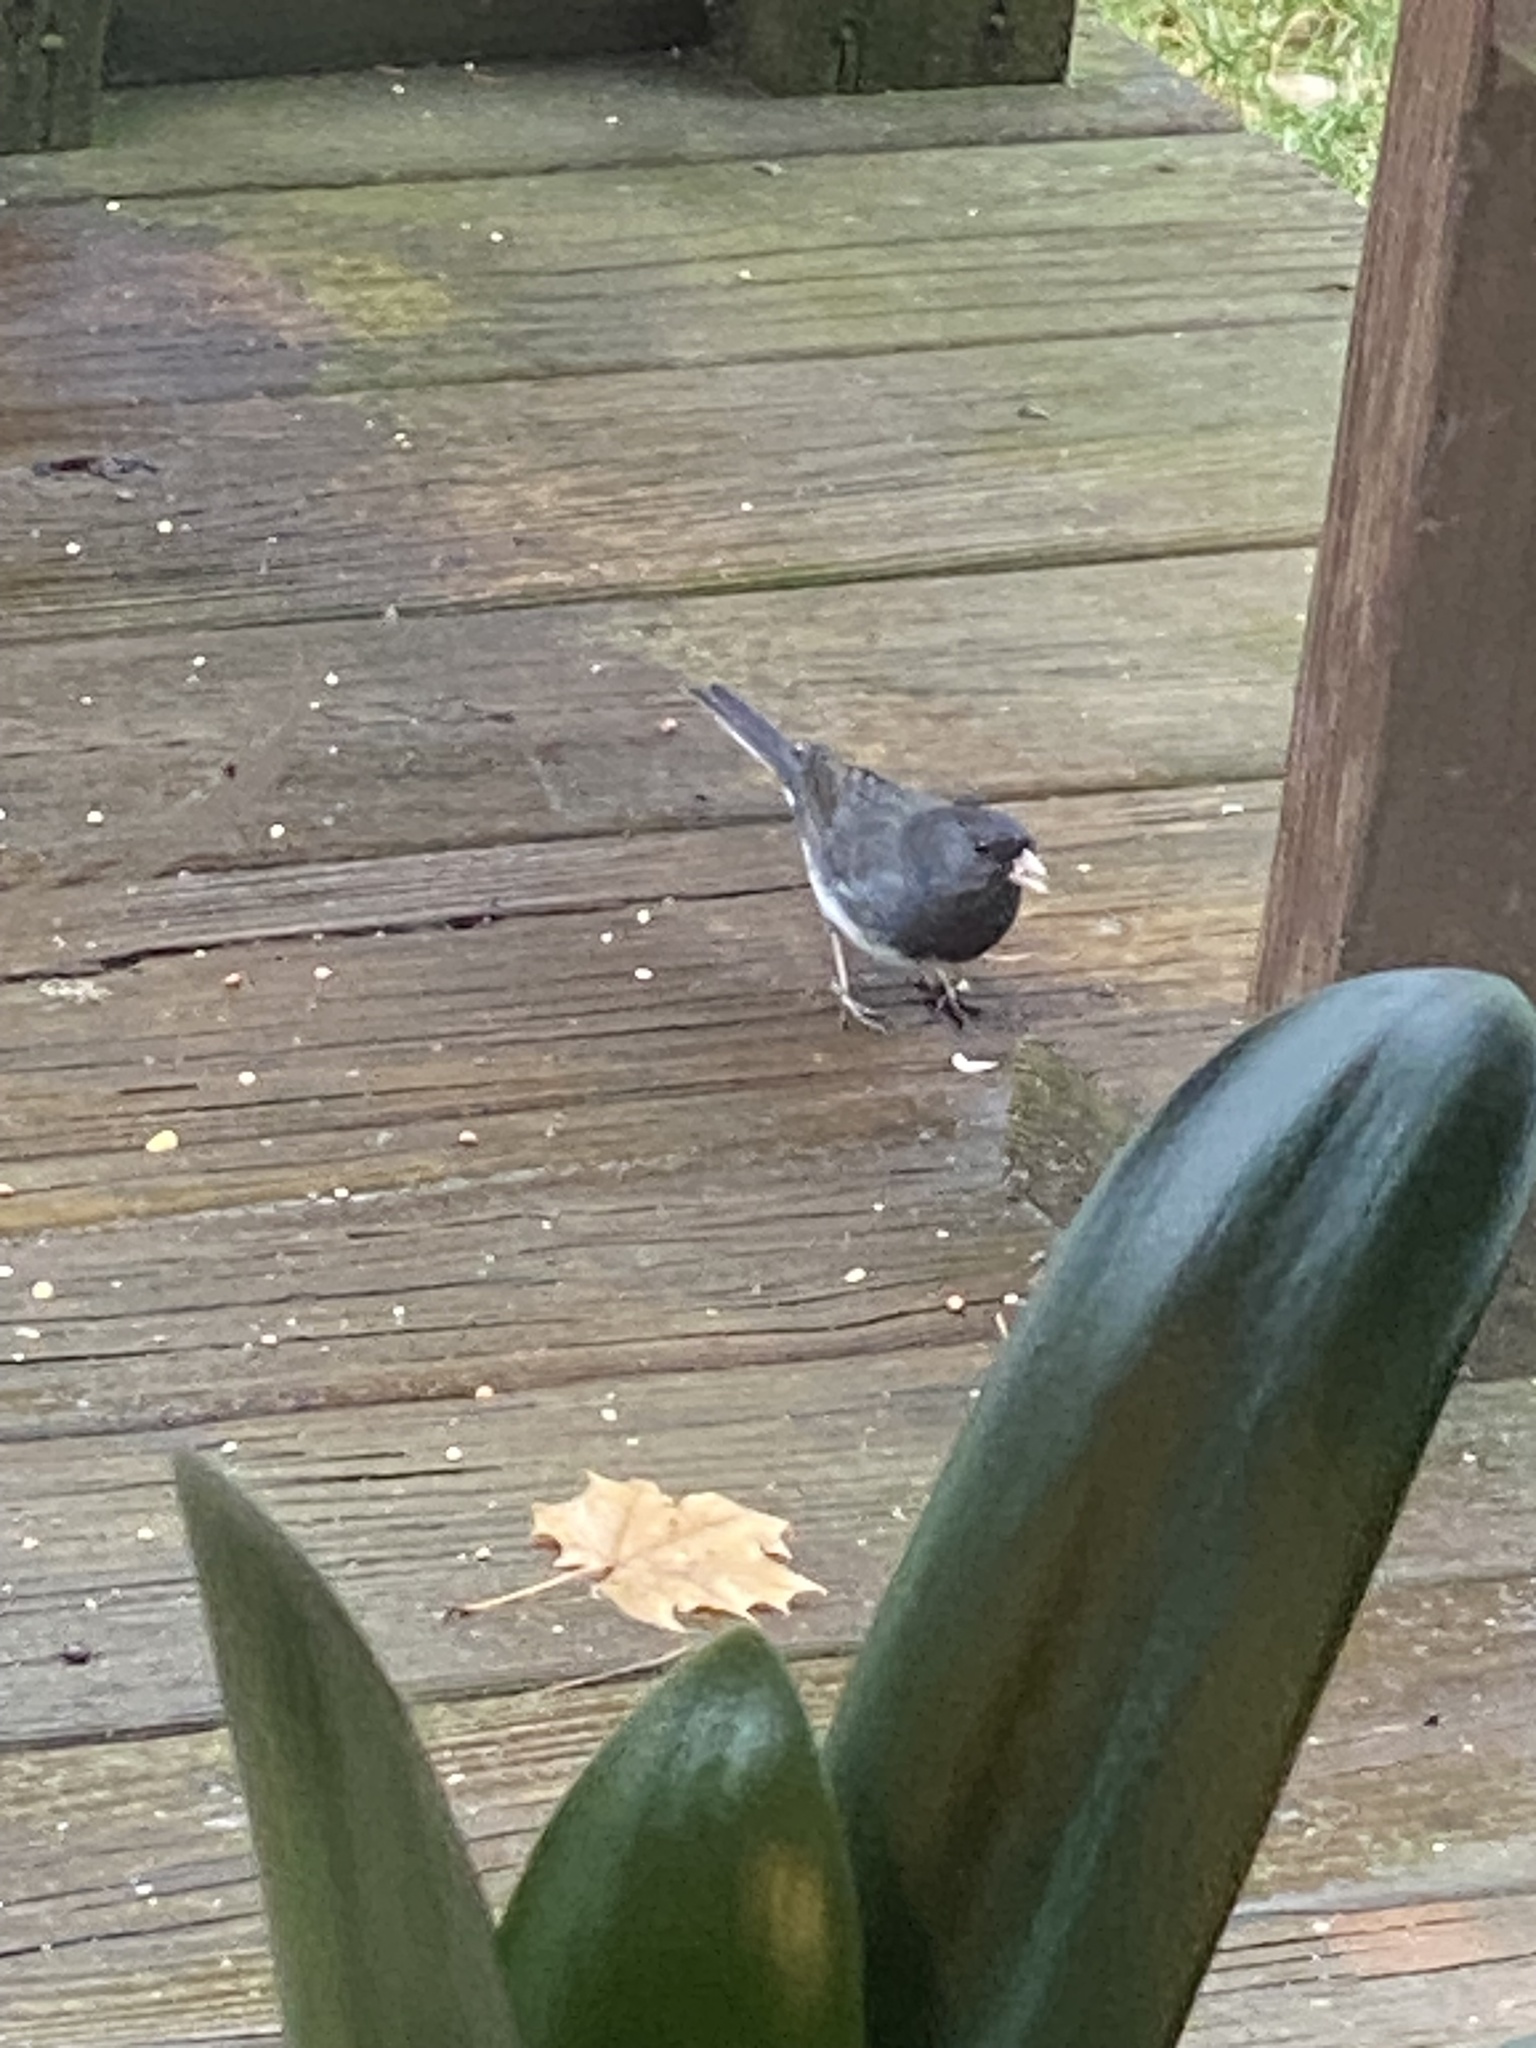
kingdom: Animalia
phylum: Chordata
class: Aves
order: Passeriformes
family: Passerellidae
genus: Junco
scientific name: Junco hyemalis
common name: Dark-eyed junco
